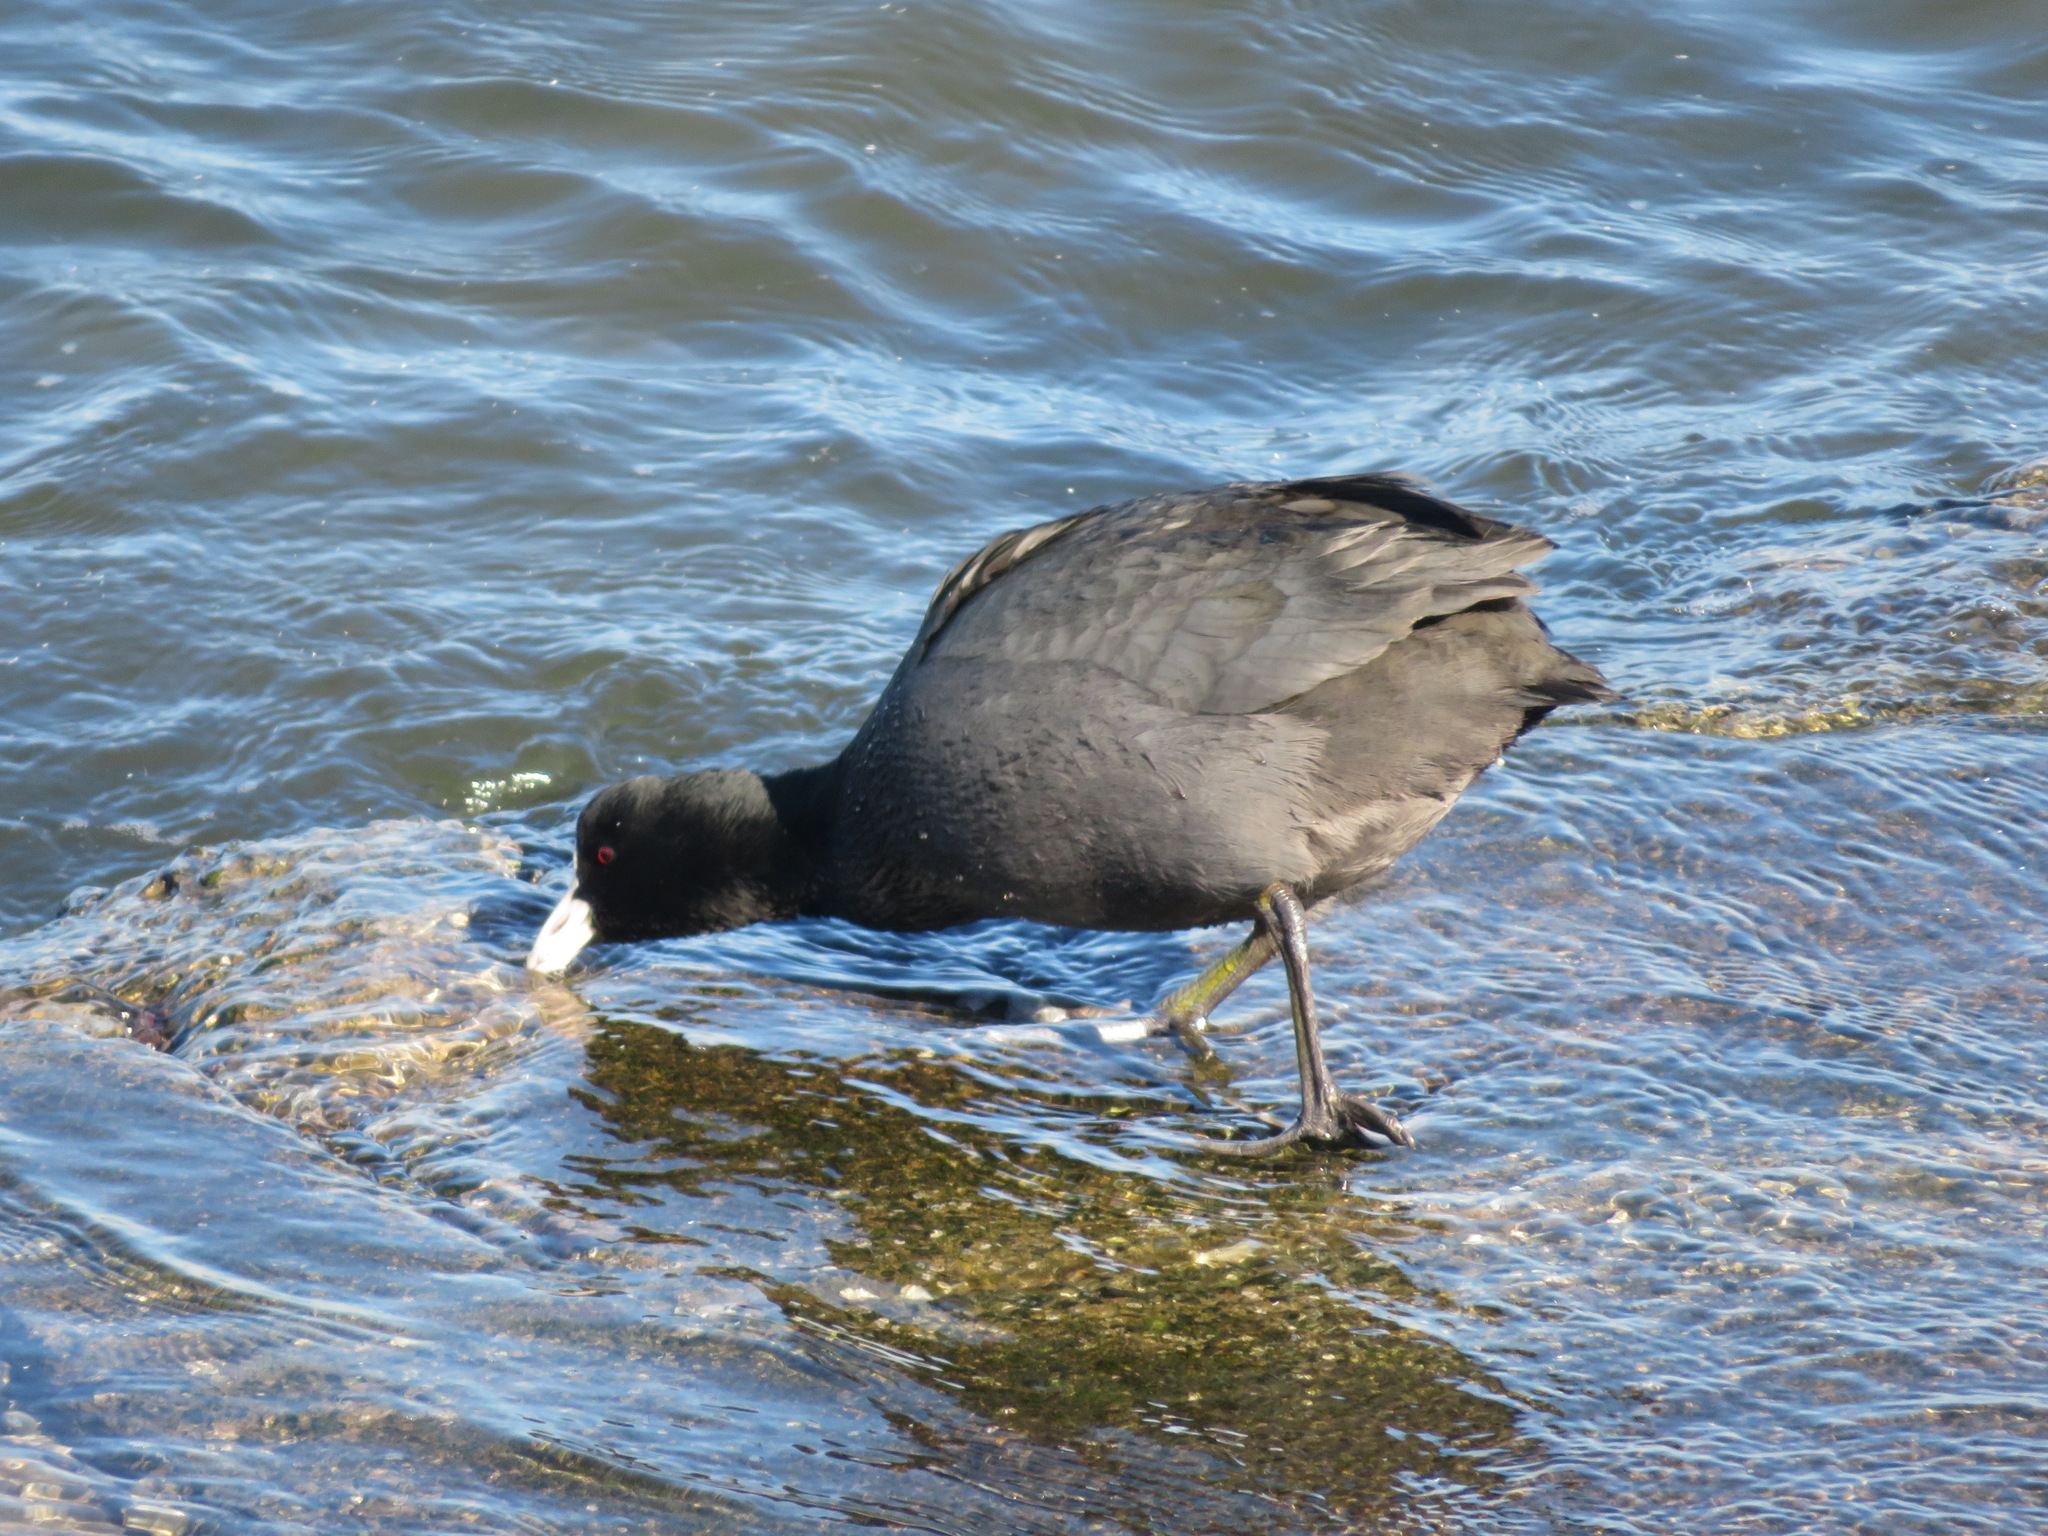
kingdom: Animalia
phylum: Chordata
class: Aves
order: Gruiformes
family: Rallidae
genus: Fulica
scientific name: Fulica atra
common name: Eurasian coot
